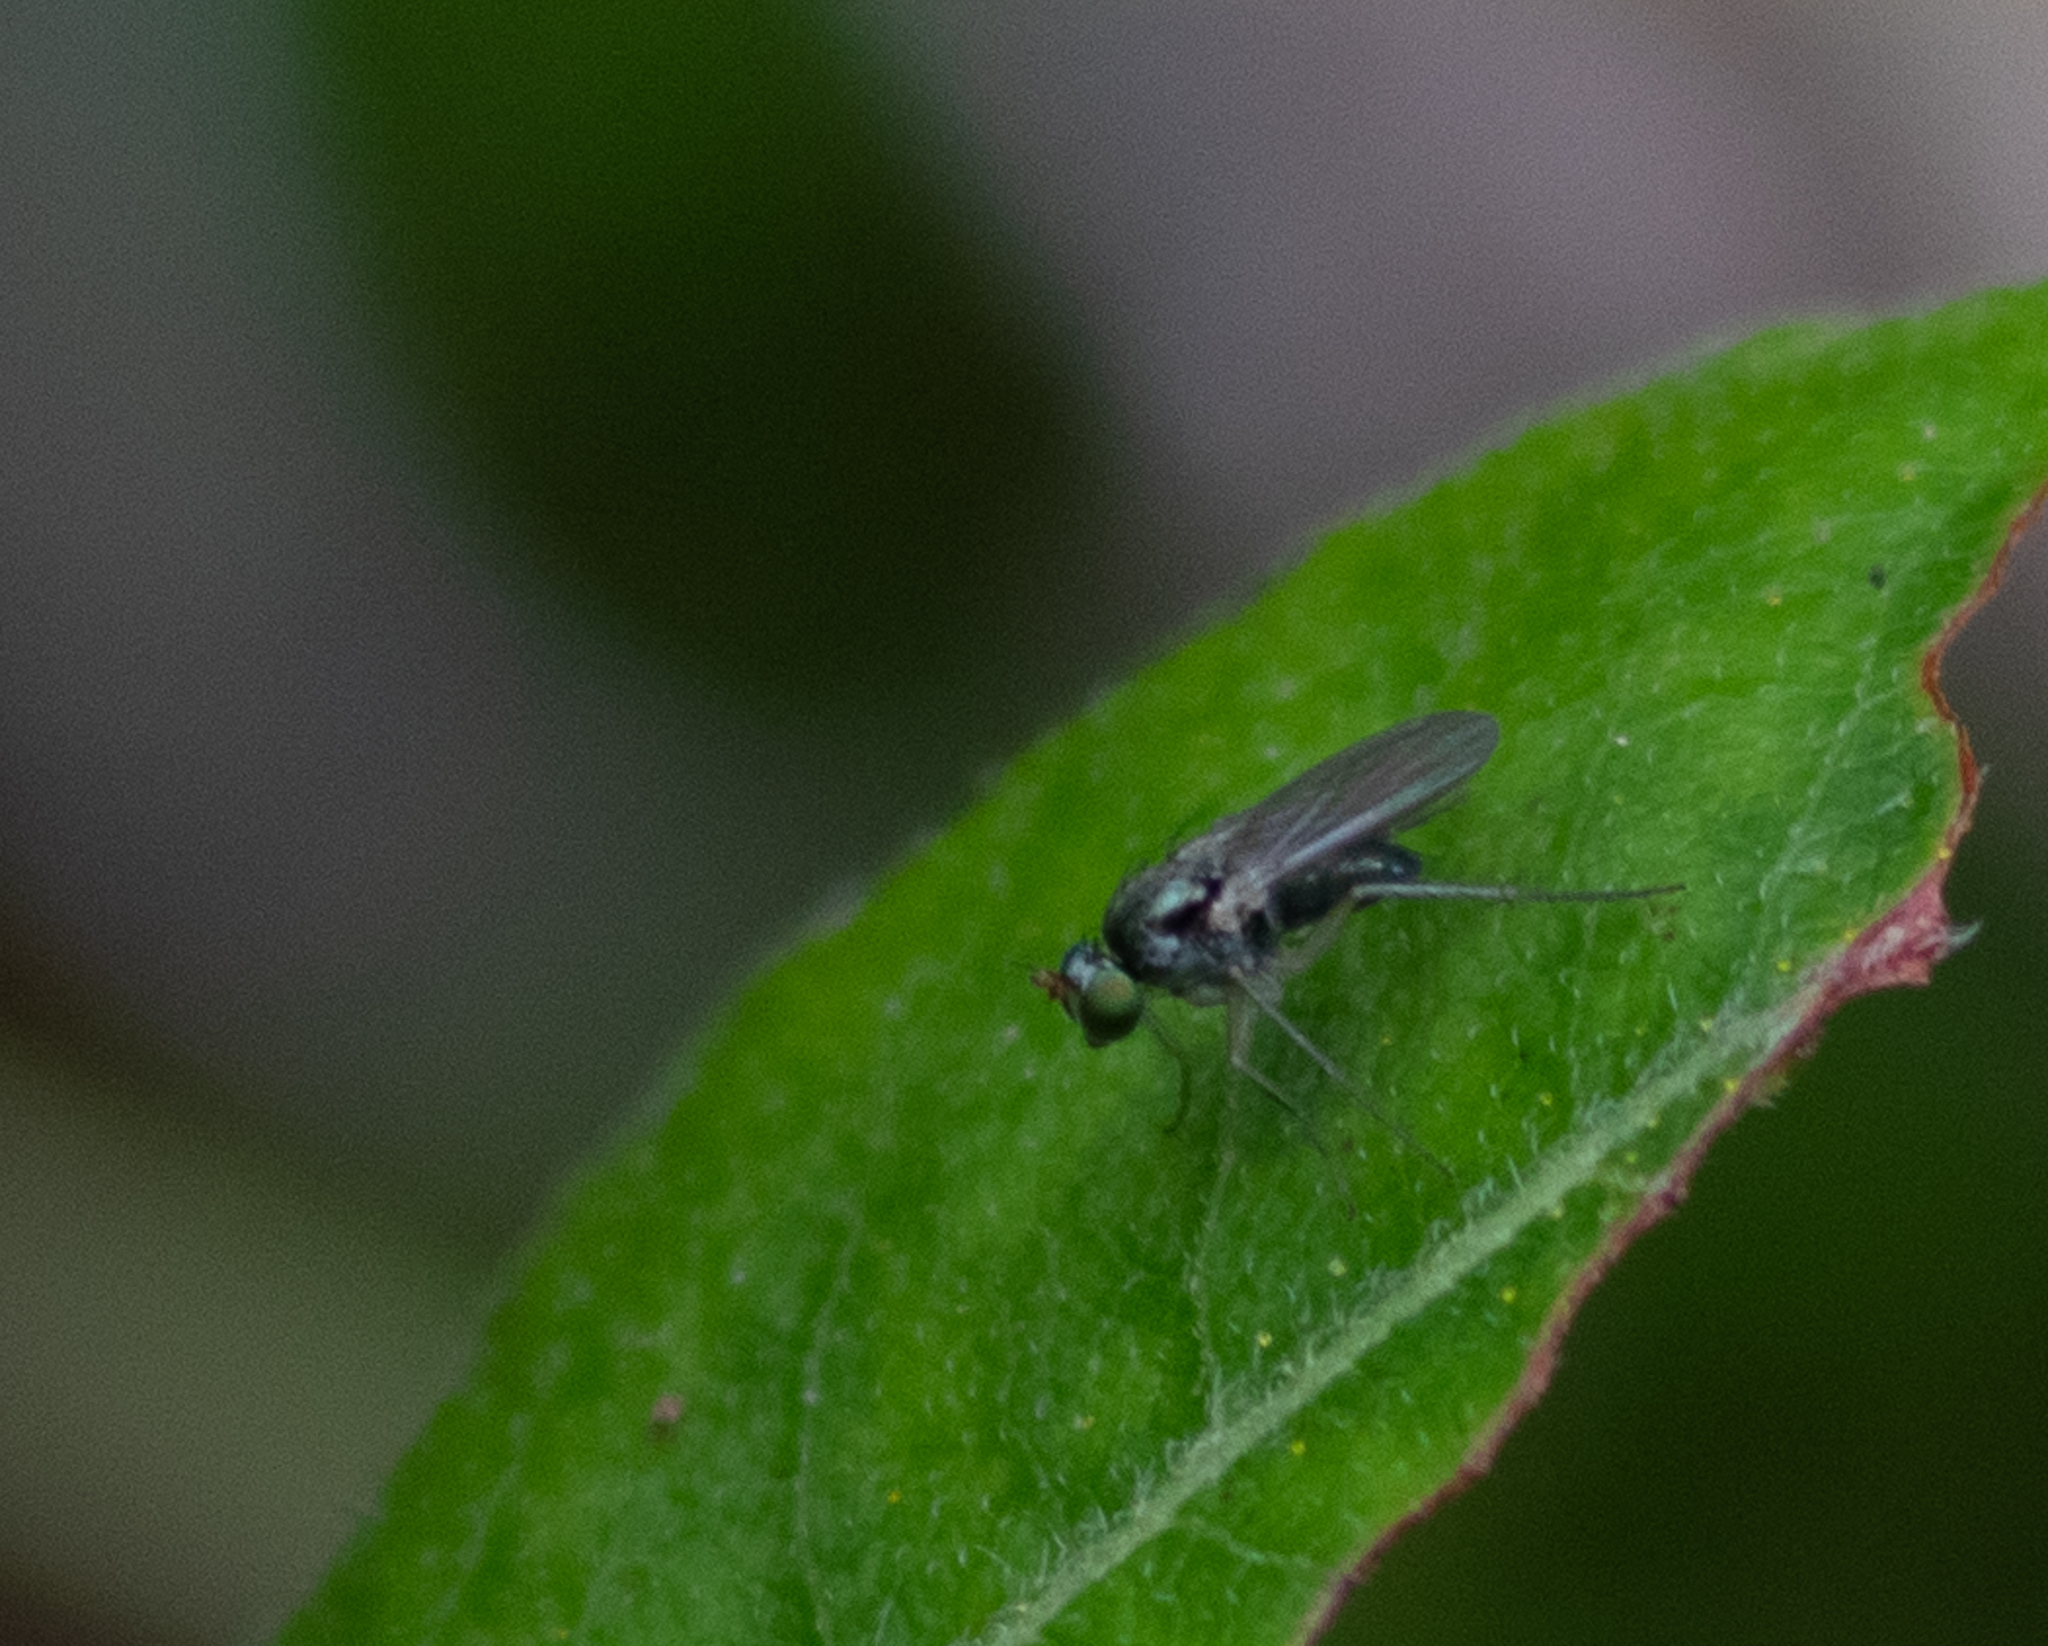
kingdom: Animalia
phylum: Arthropoda
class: Insecta
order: Diptera
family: Dolichopodidae
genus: Gymnopternus
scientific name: Gymnopternus
